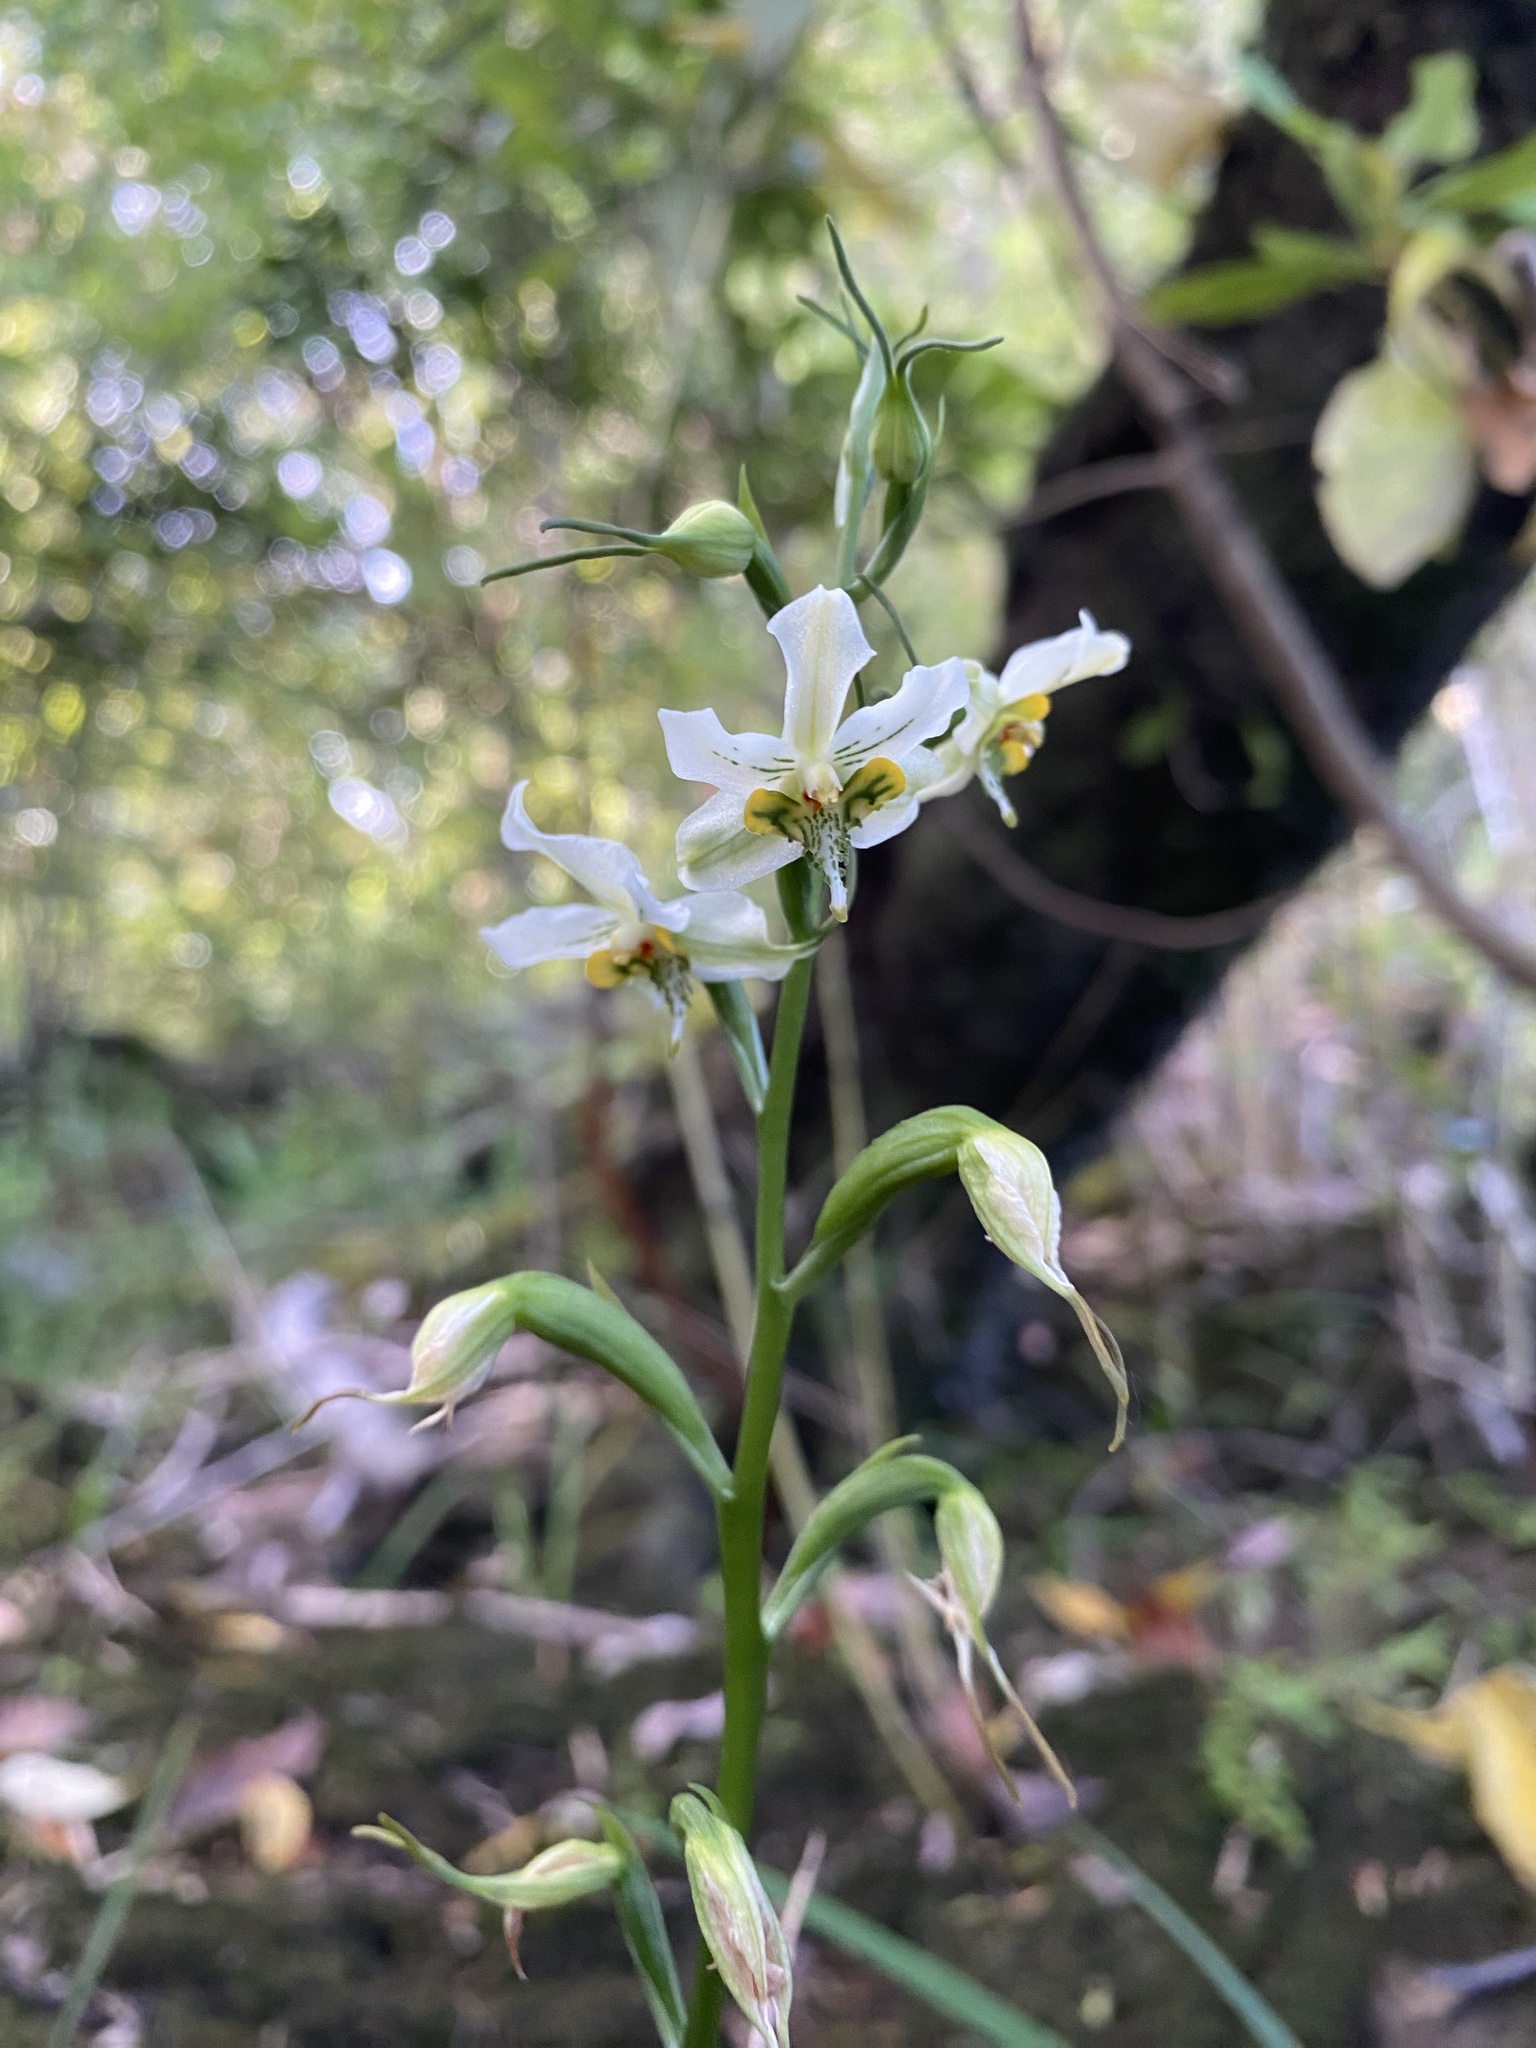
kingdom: Plantae
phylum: Tracheophyta
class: Liliopsida
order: Asparagales
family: Orchidaceae
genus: Gavilea
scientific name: Gavilea araucana
